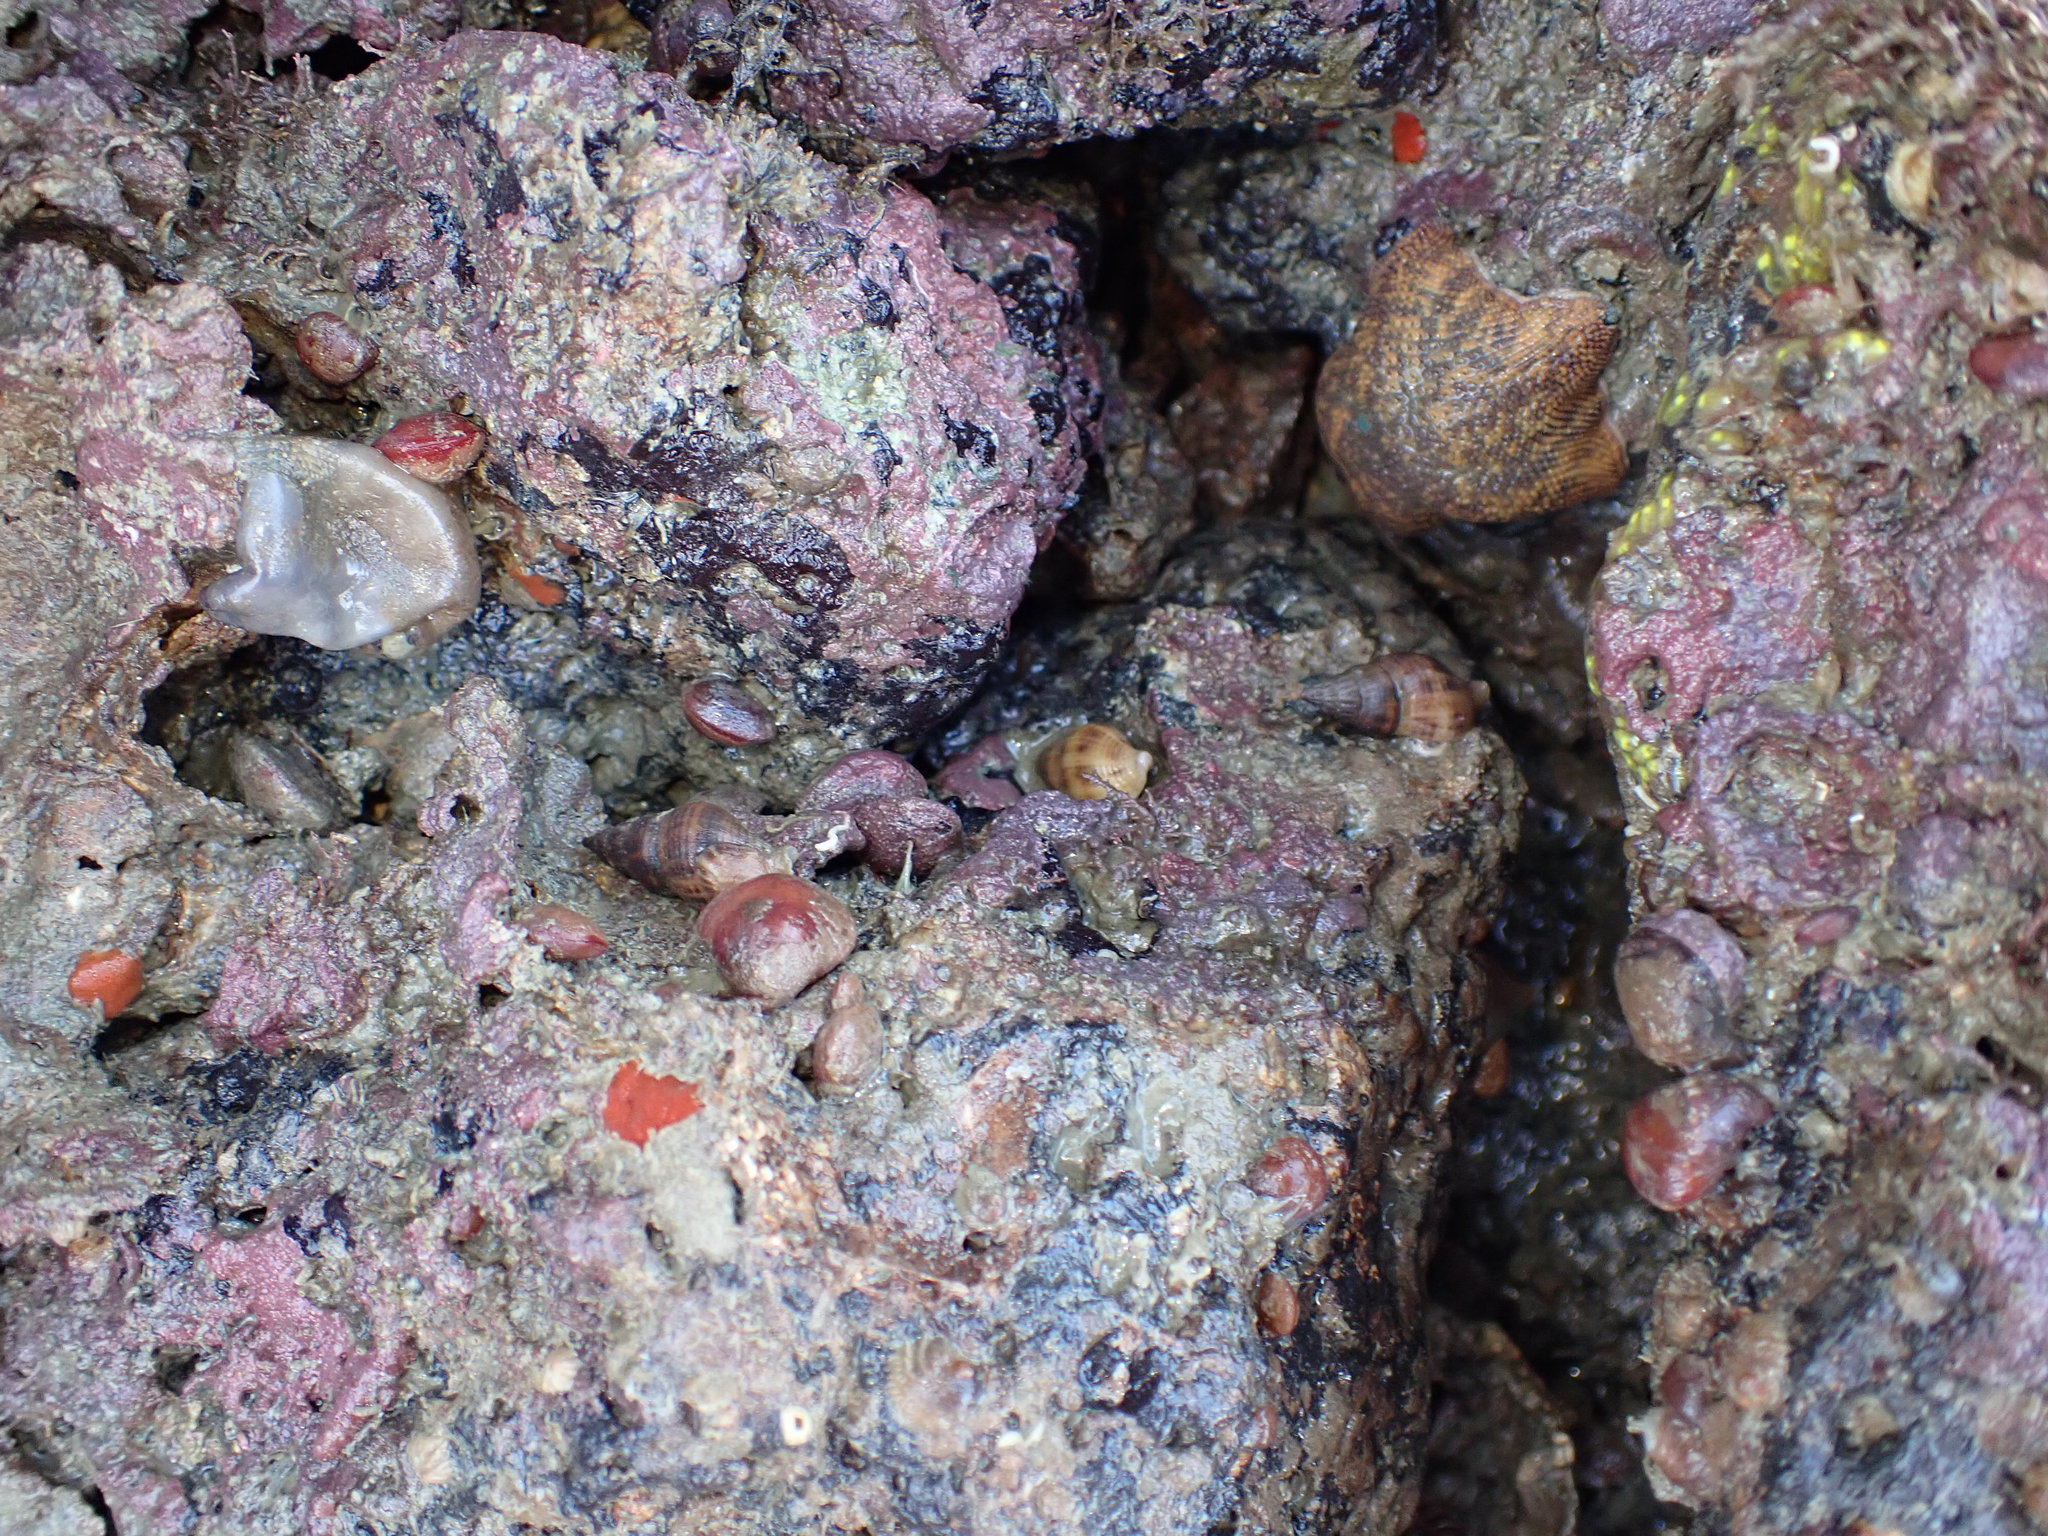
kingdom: Animalia
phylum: Mollusca
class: Gastropoda
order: Neogastropoda
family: Tudiclidae
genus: Buccinulum
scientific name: Buccinulum vittatum
